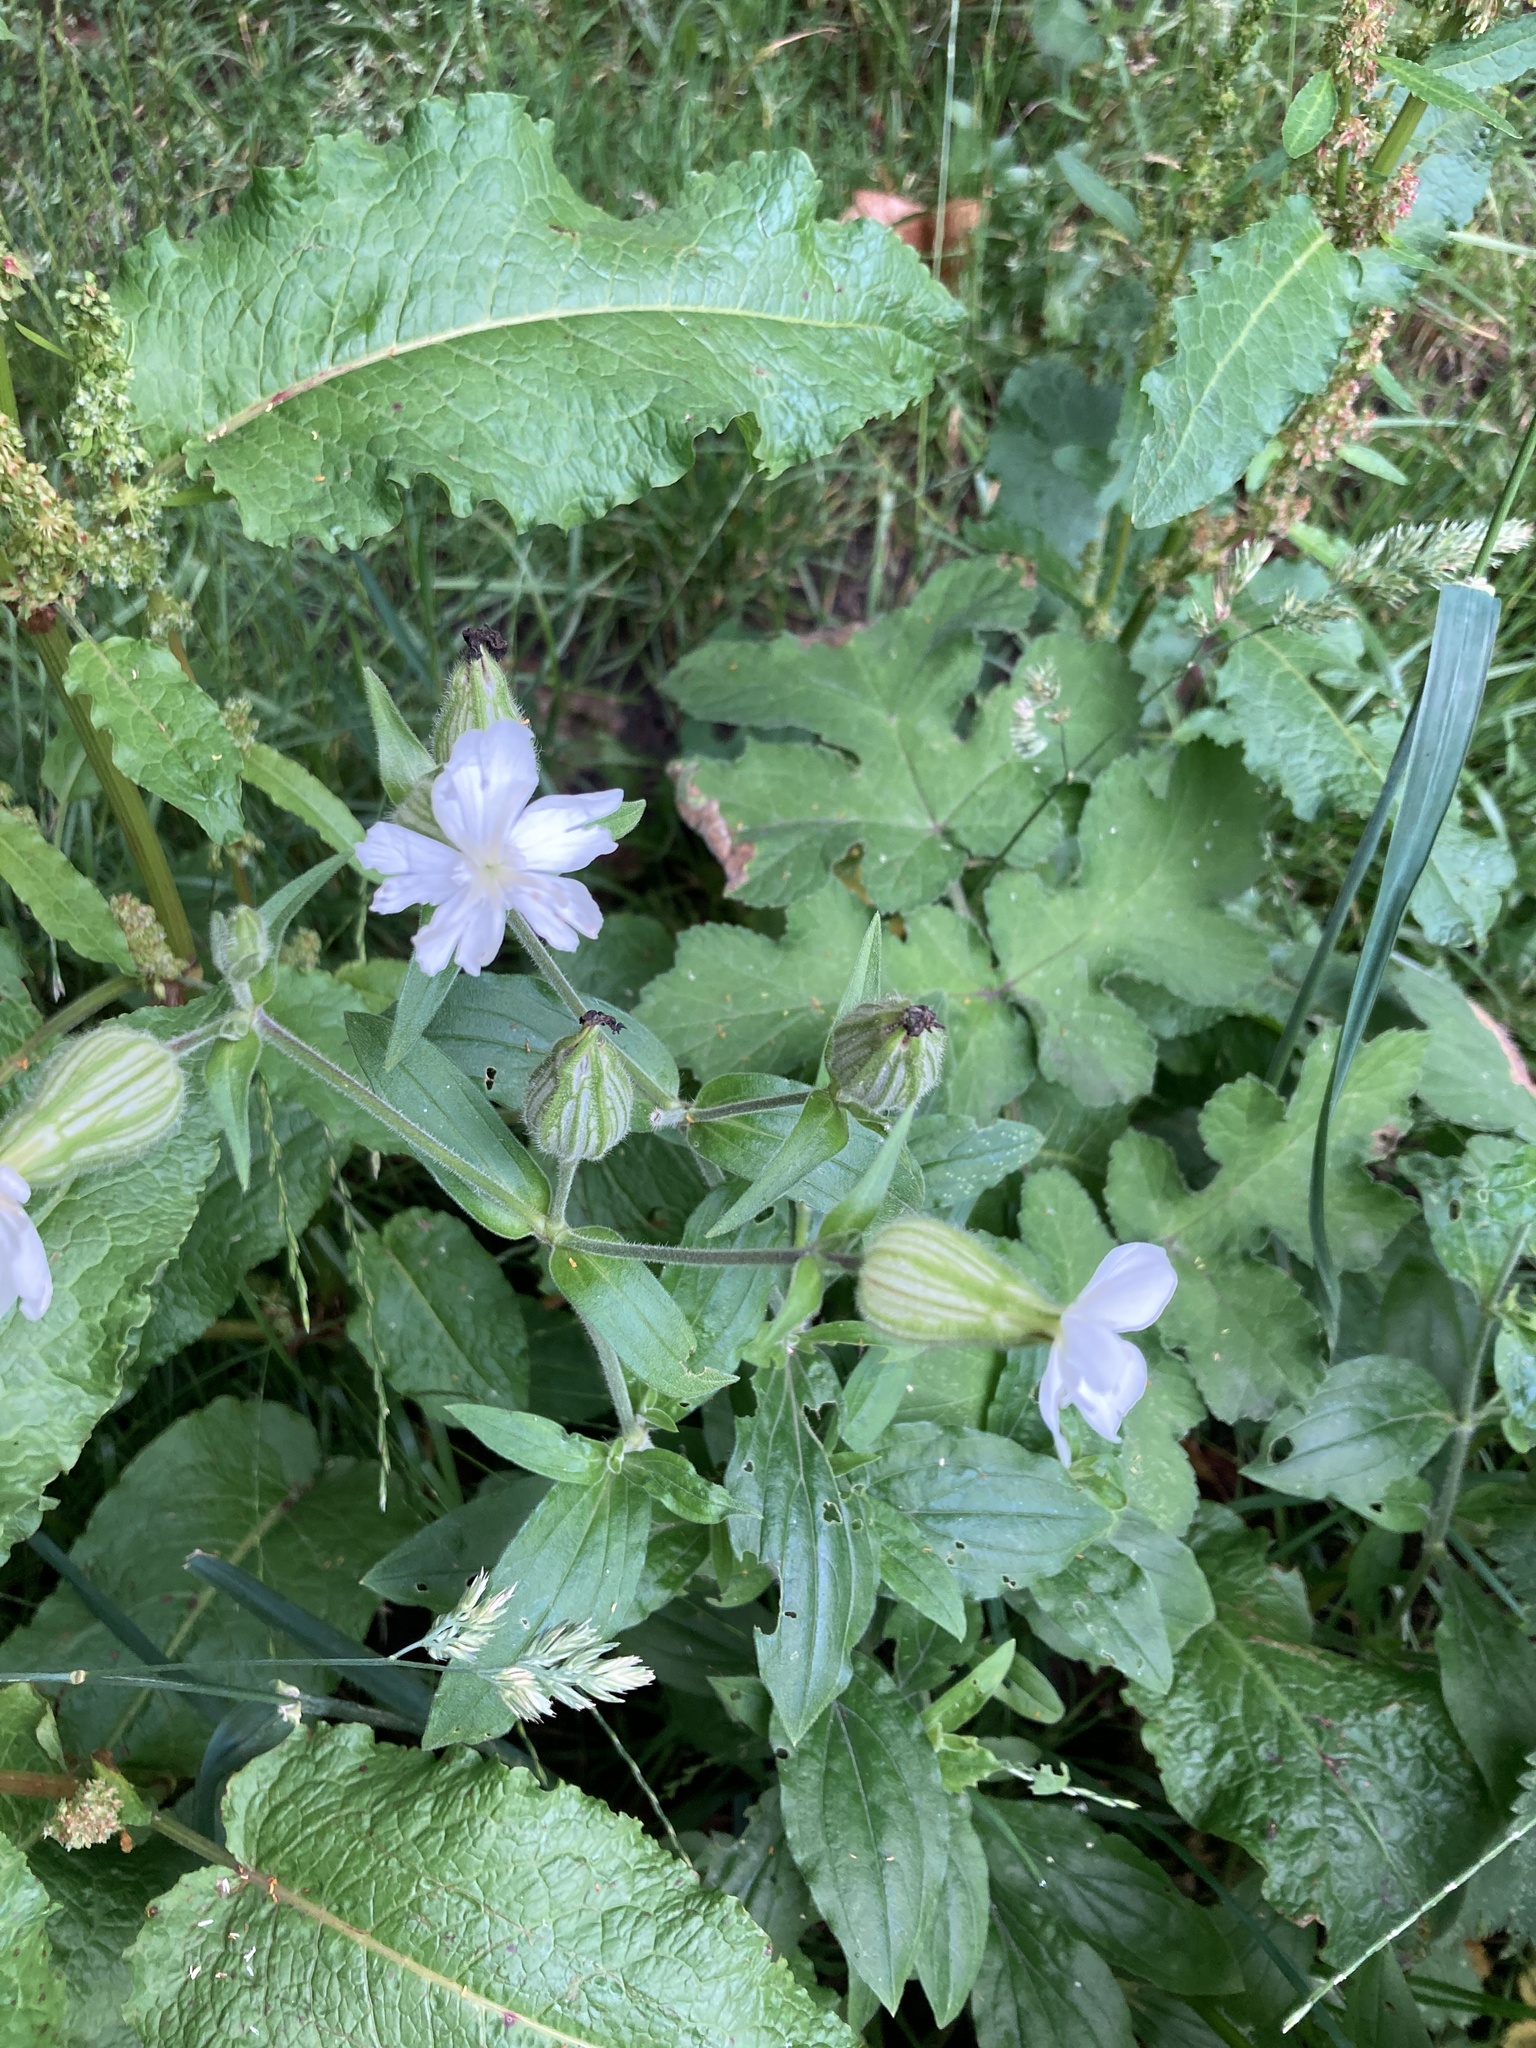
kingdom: Plantae
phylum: Tracheophyta
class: Magnoliopsida
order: Caryophyllales
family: Caryophyllaceae
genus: Silene
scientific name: Silene latifolia
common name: White campion
